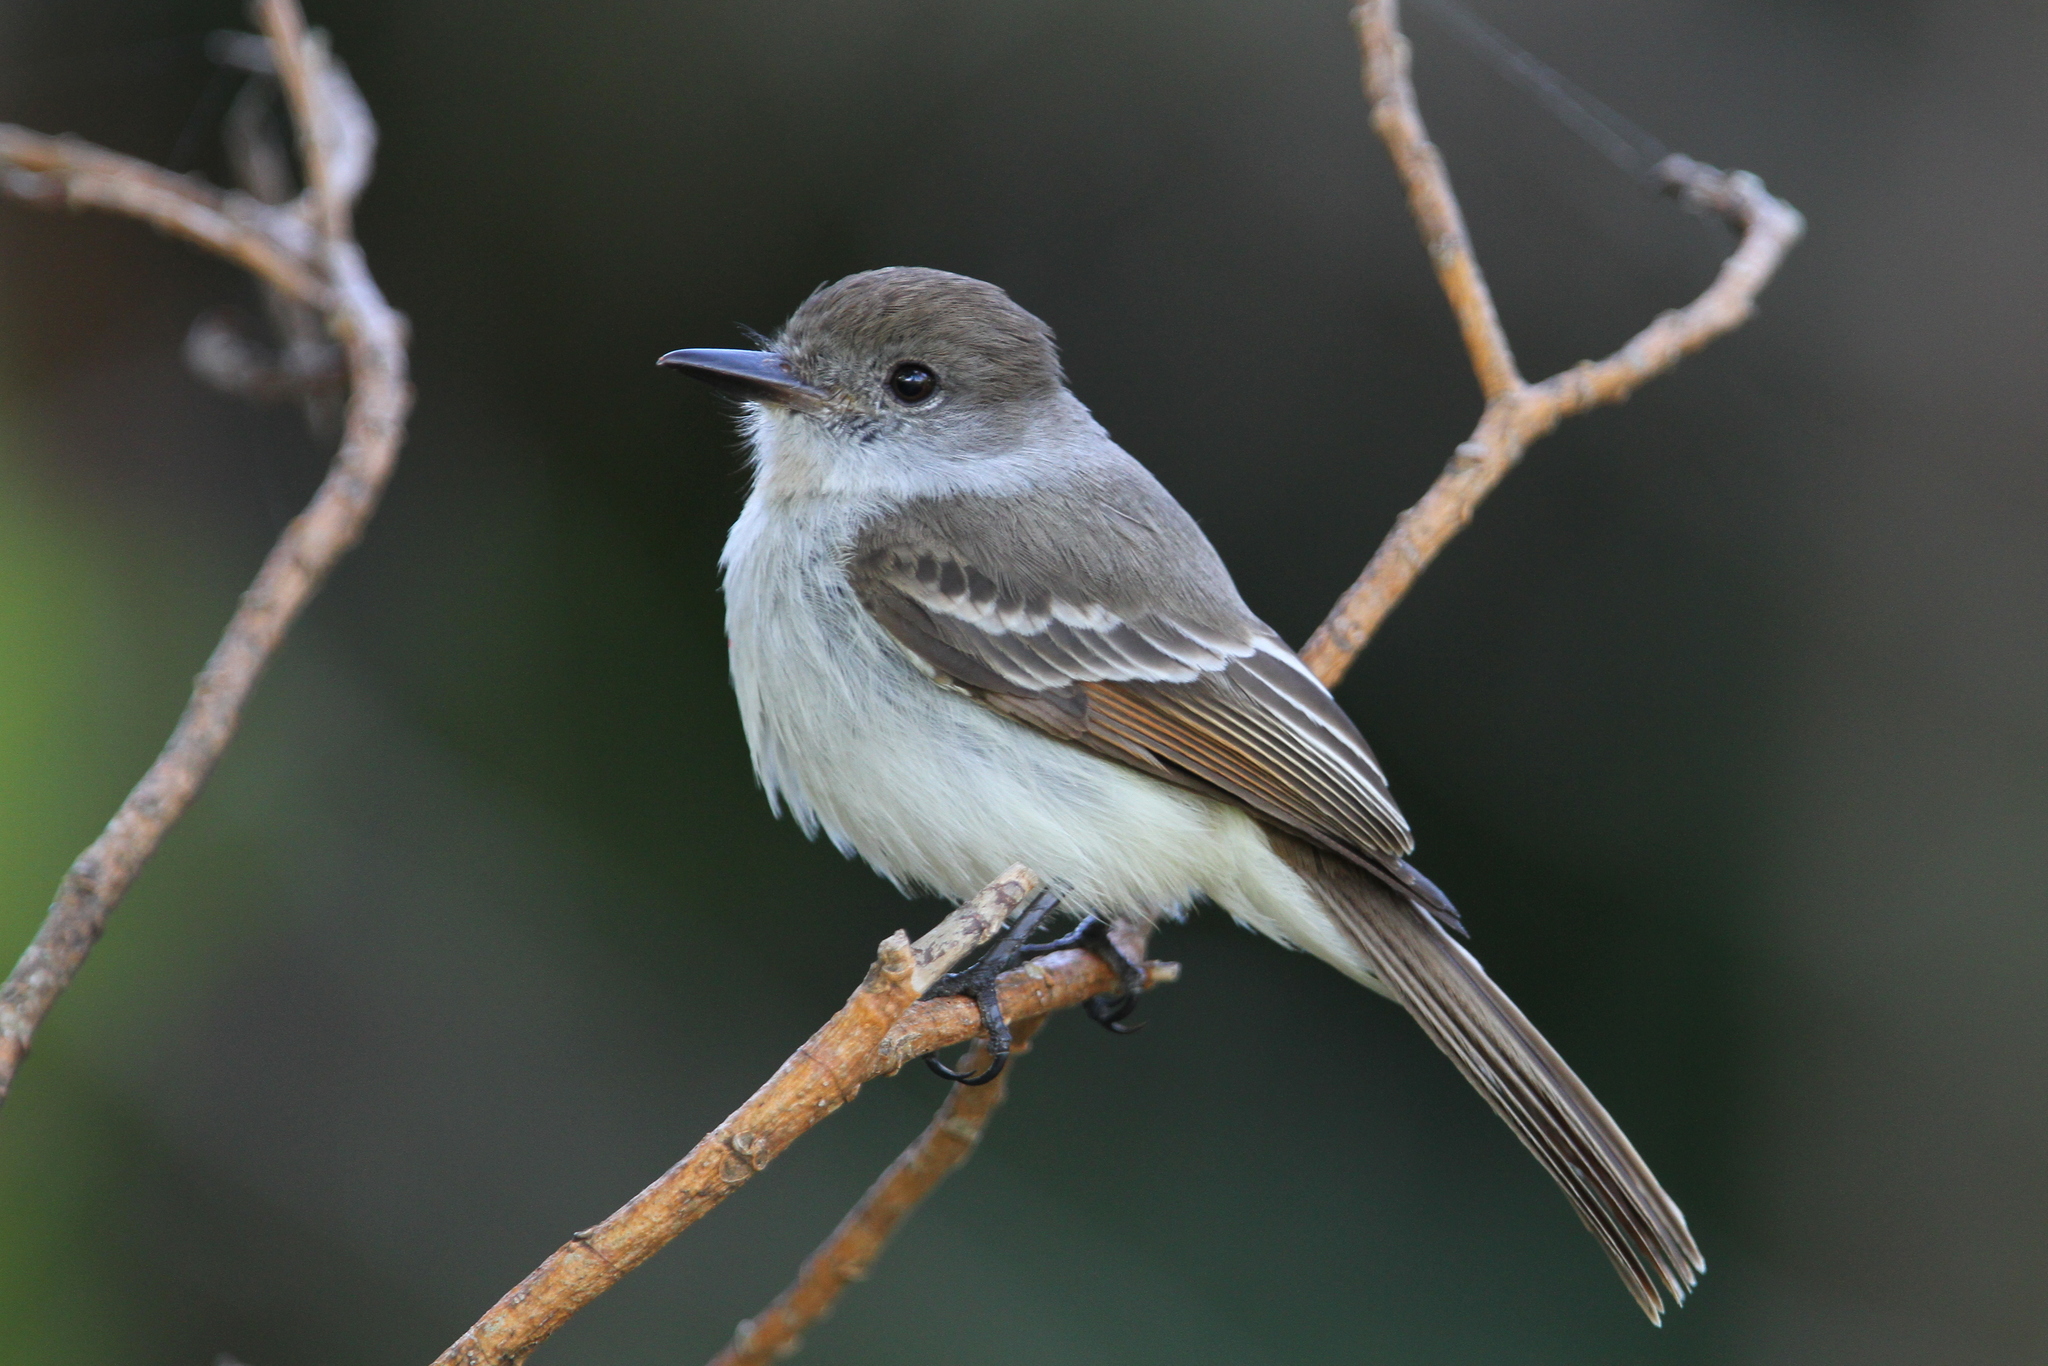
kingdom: Animalia
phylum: Chordata
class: Aves
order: Passeriformes
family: Tyrannidae
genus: Myiarchus
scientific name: Myiarchus sagrae
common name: La sagra's flycatcher
